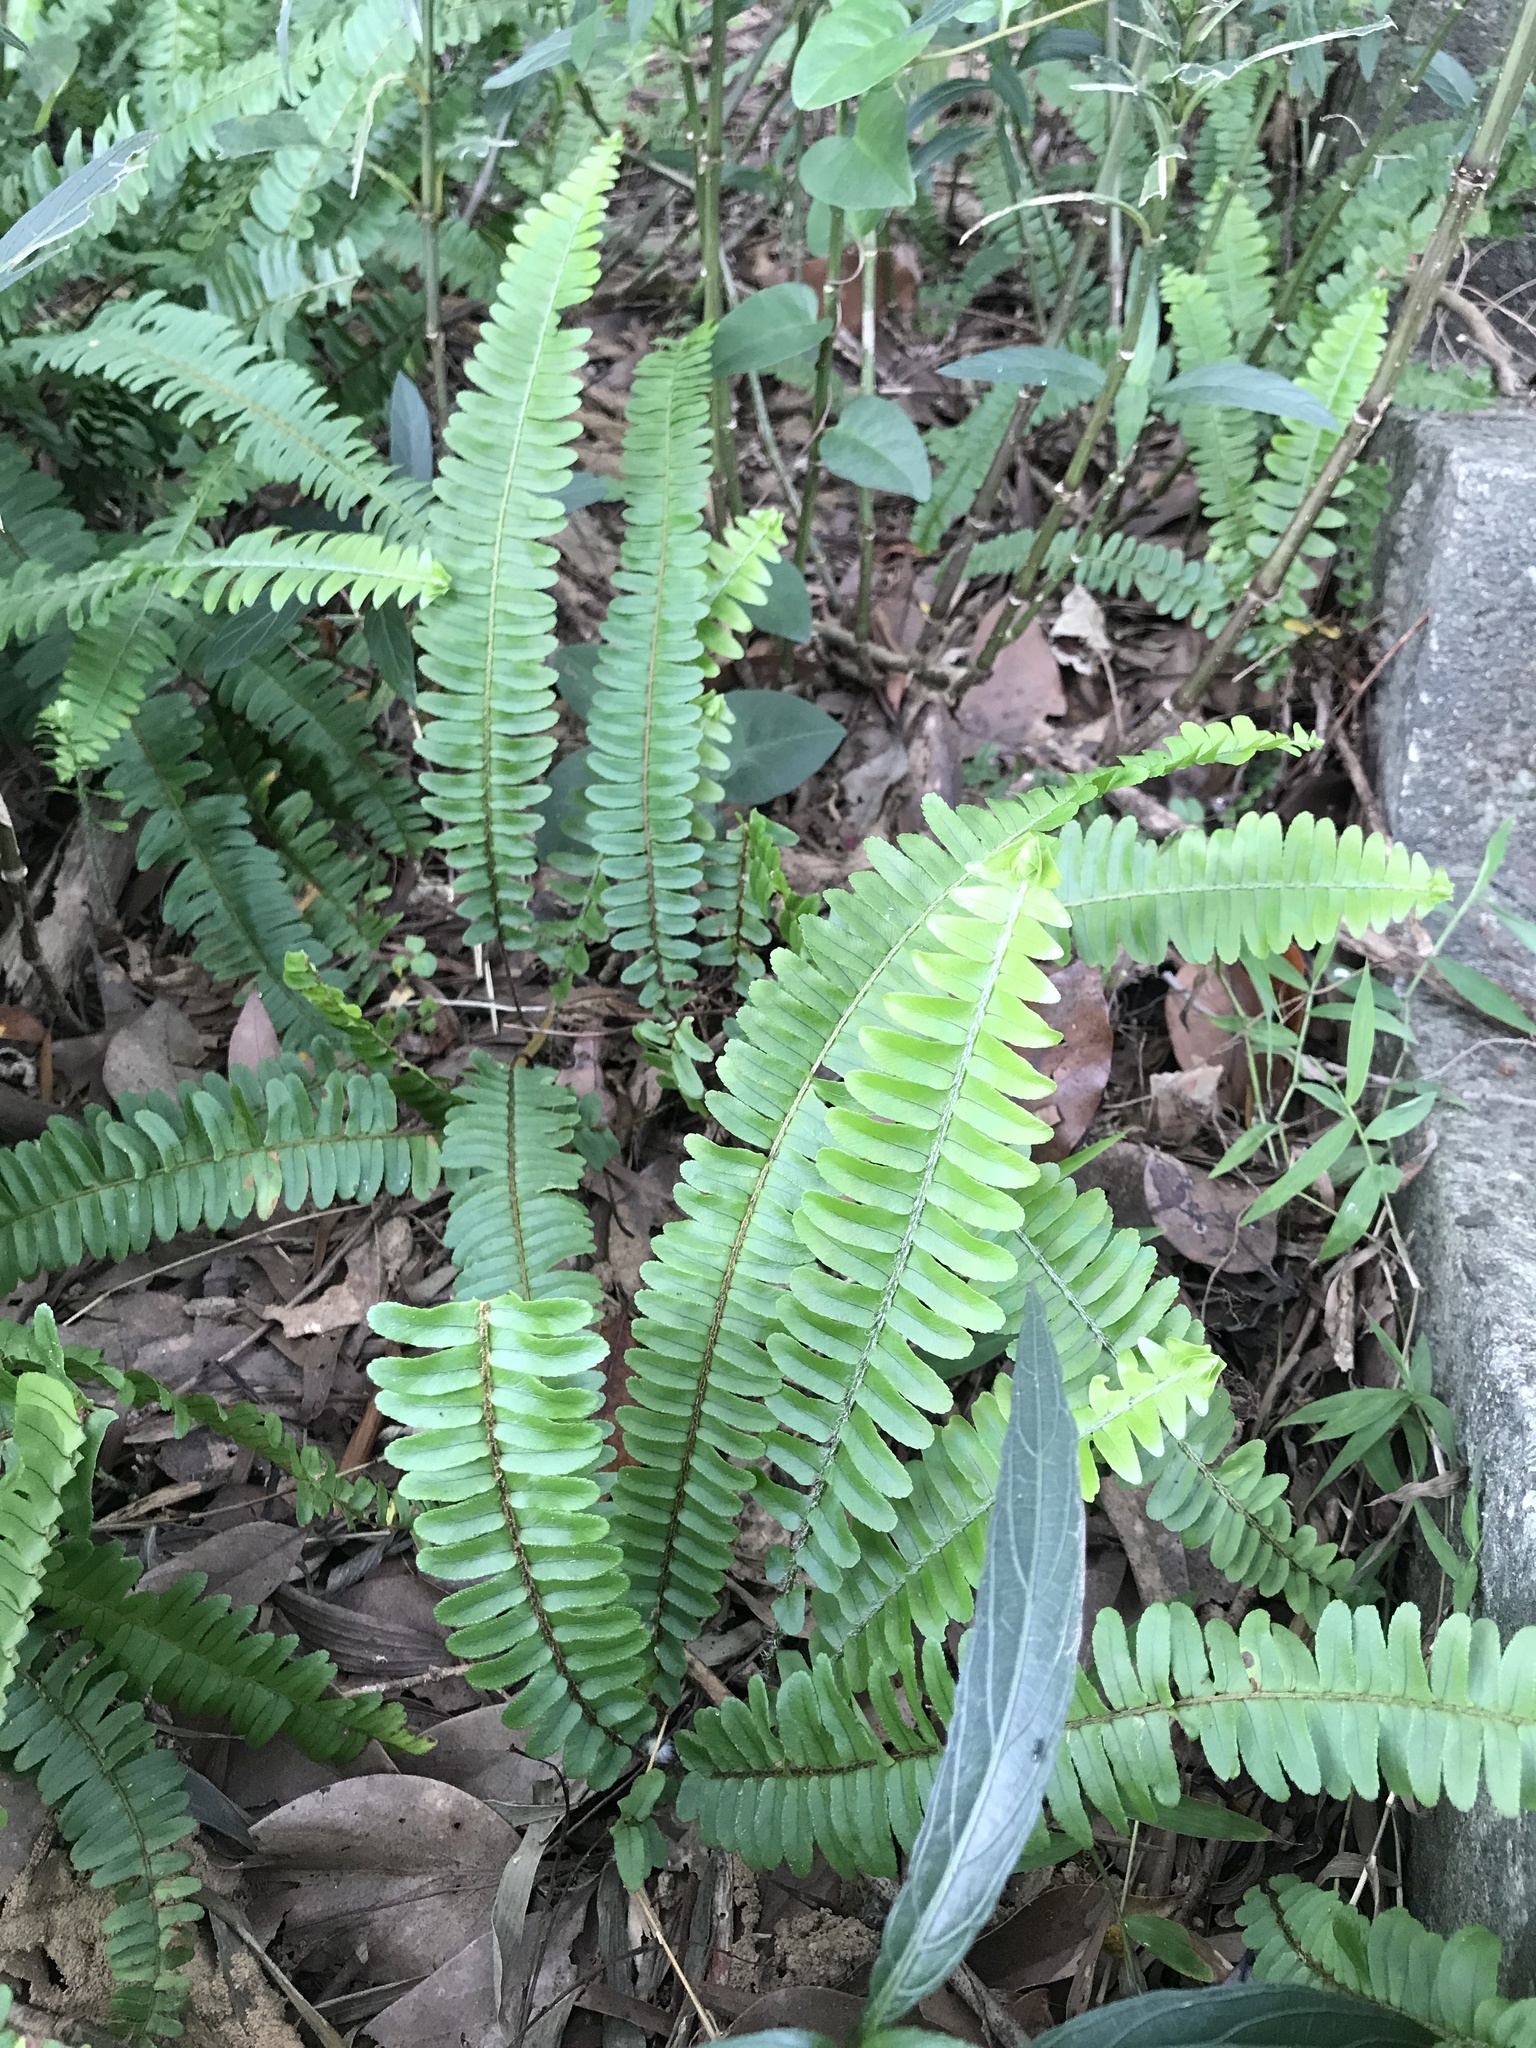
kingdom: Plantae
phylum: Tracheophyta
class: Polypodiopsida
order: Polypodiales
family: Nephrolepidaceae
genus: Nephrolepis
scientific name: Nephrolepis cordifolia
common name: Narrow swordfern
